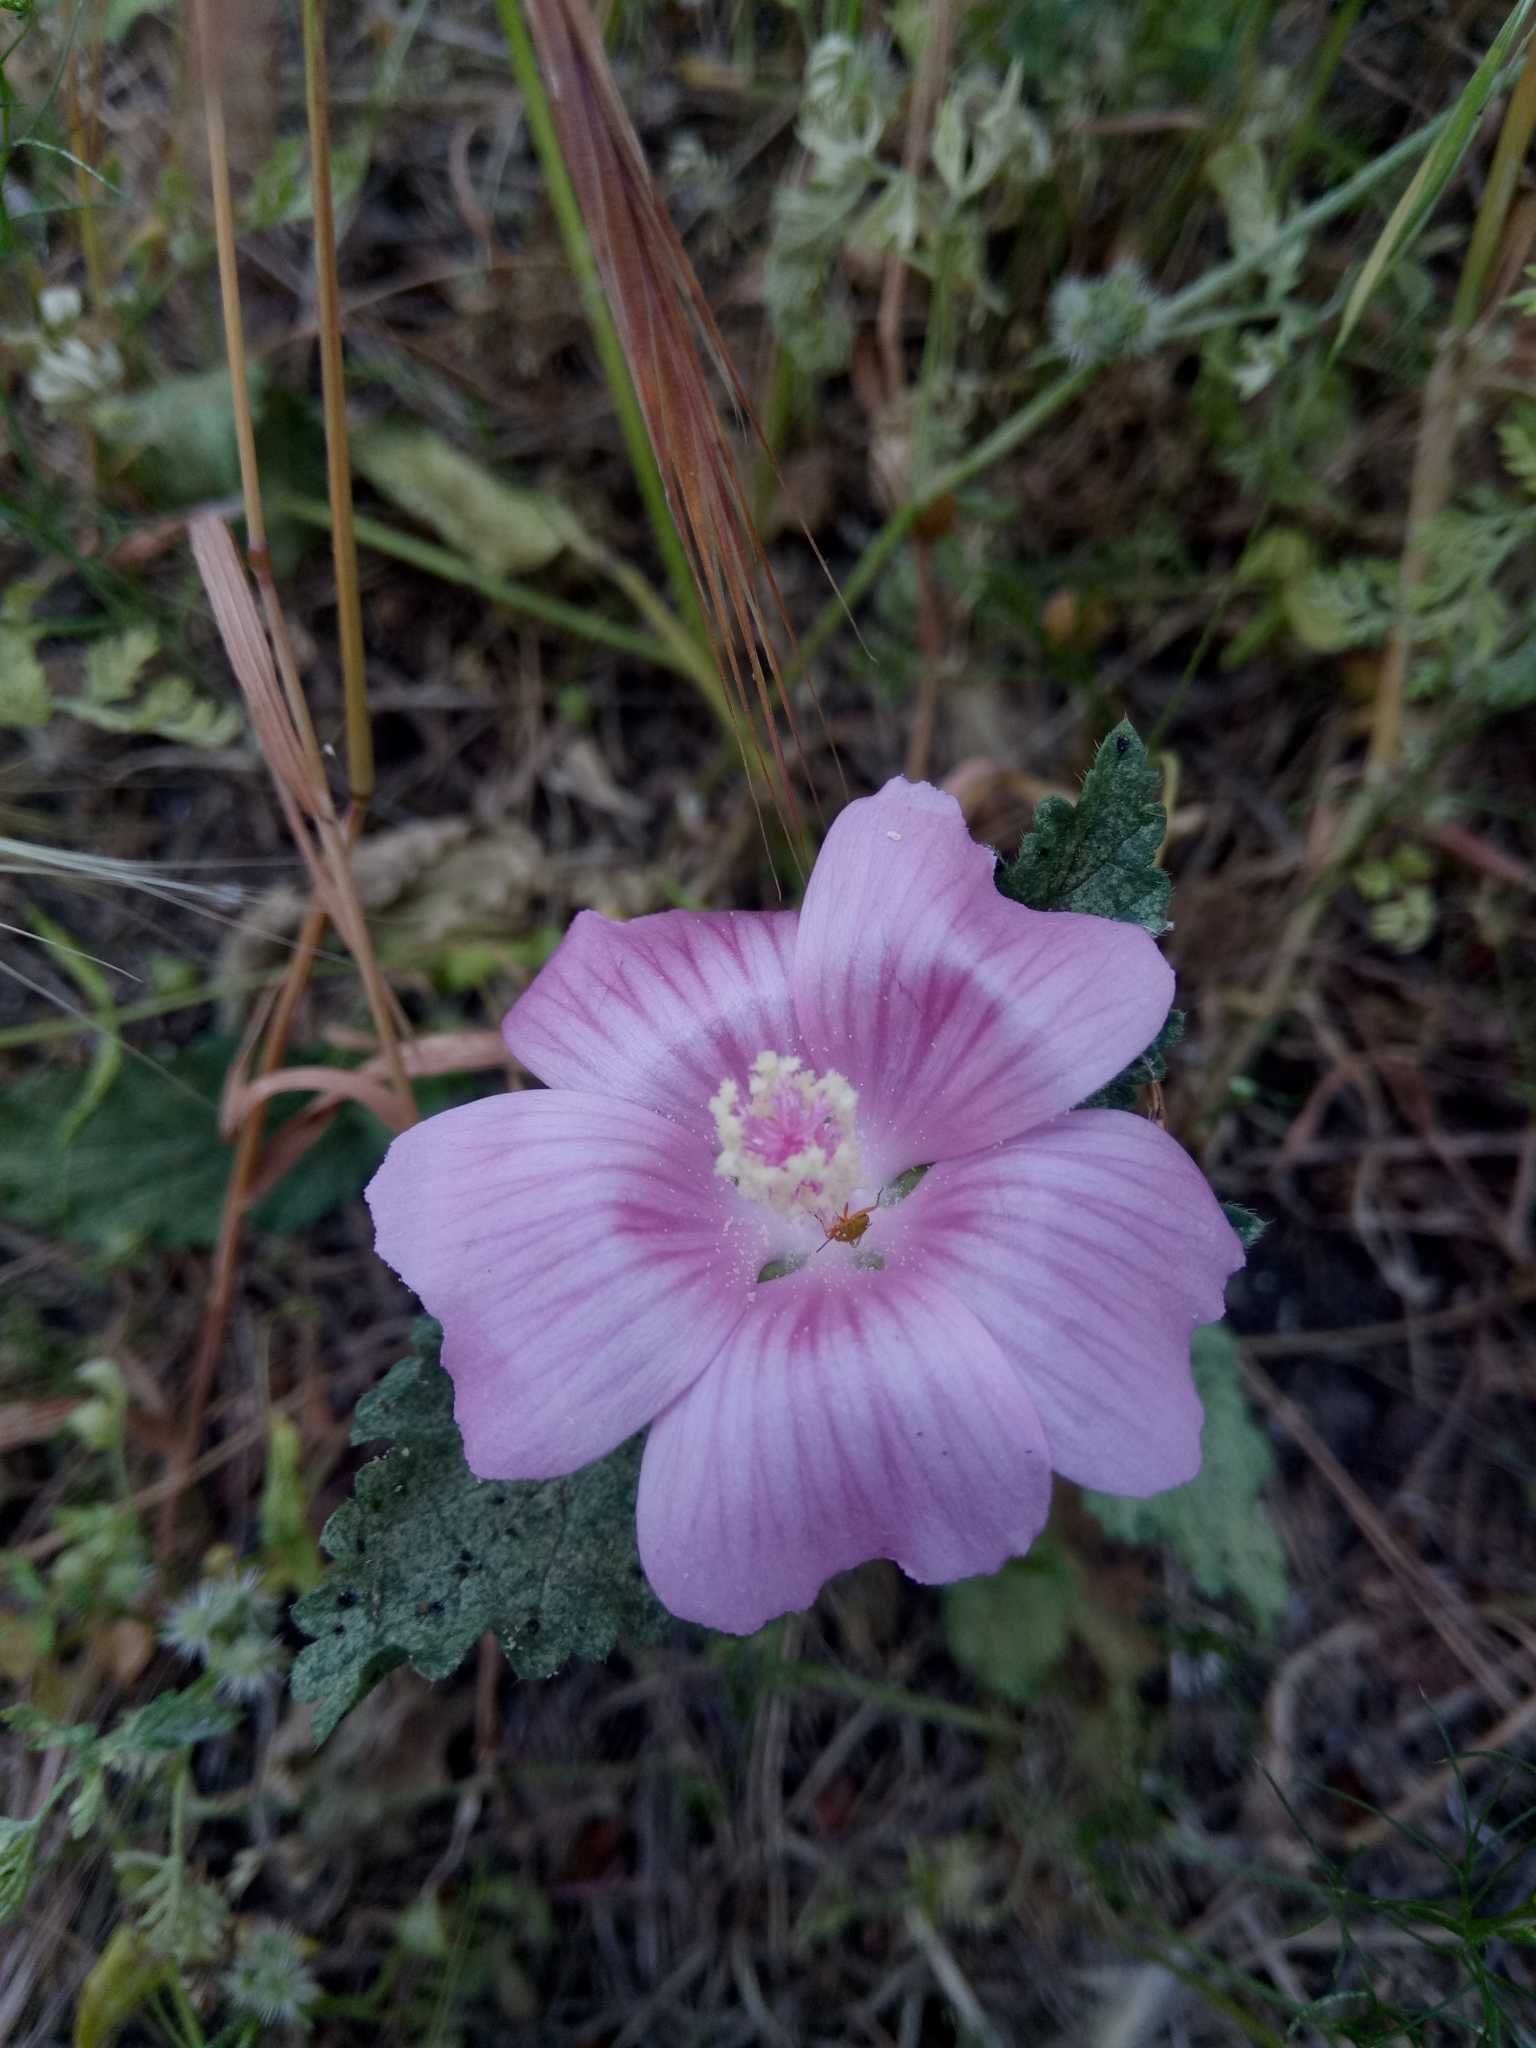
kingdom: Plantae
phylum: Tracheophyta
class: Magnoliopsida
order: Malvales
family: Malvaceae
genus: Malope
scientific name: Malope malacoides
